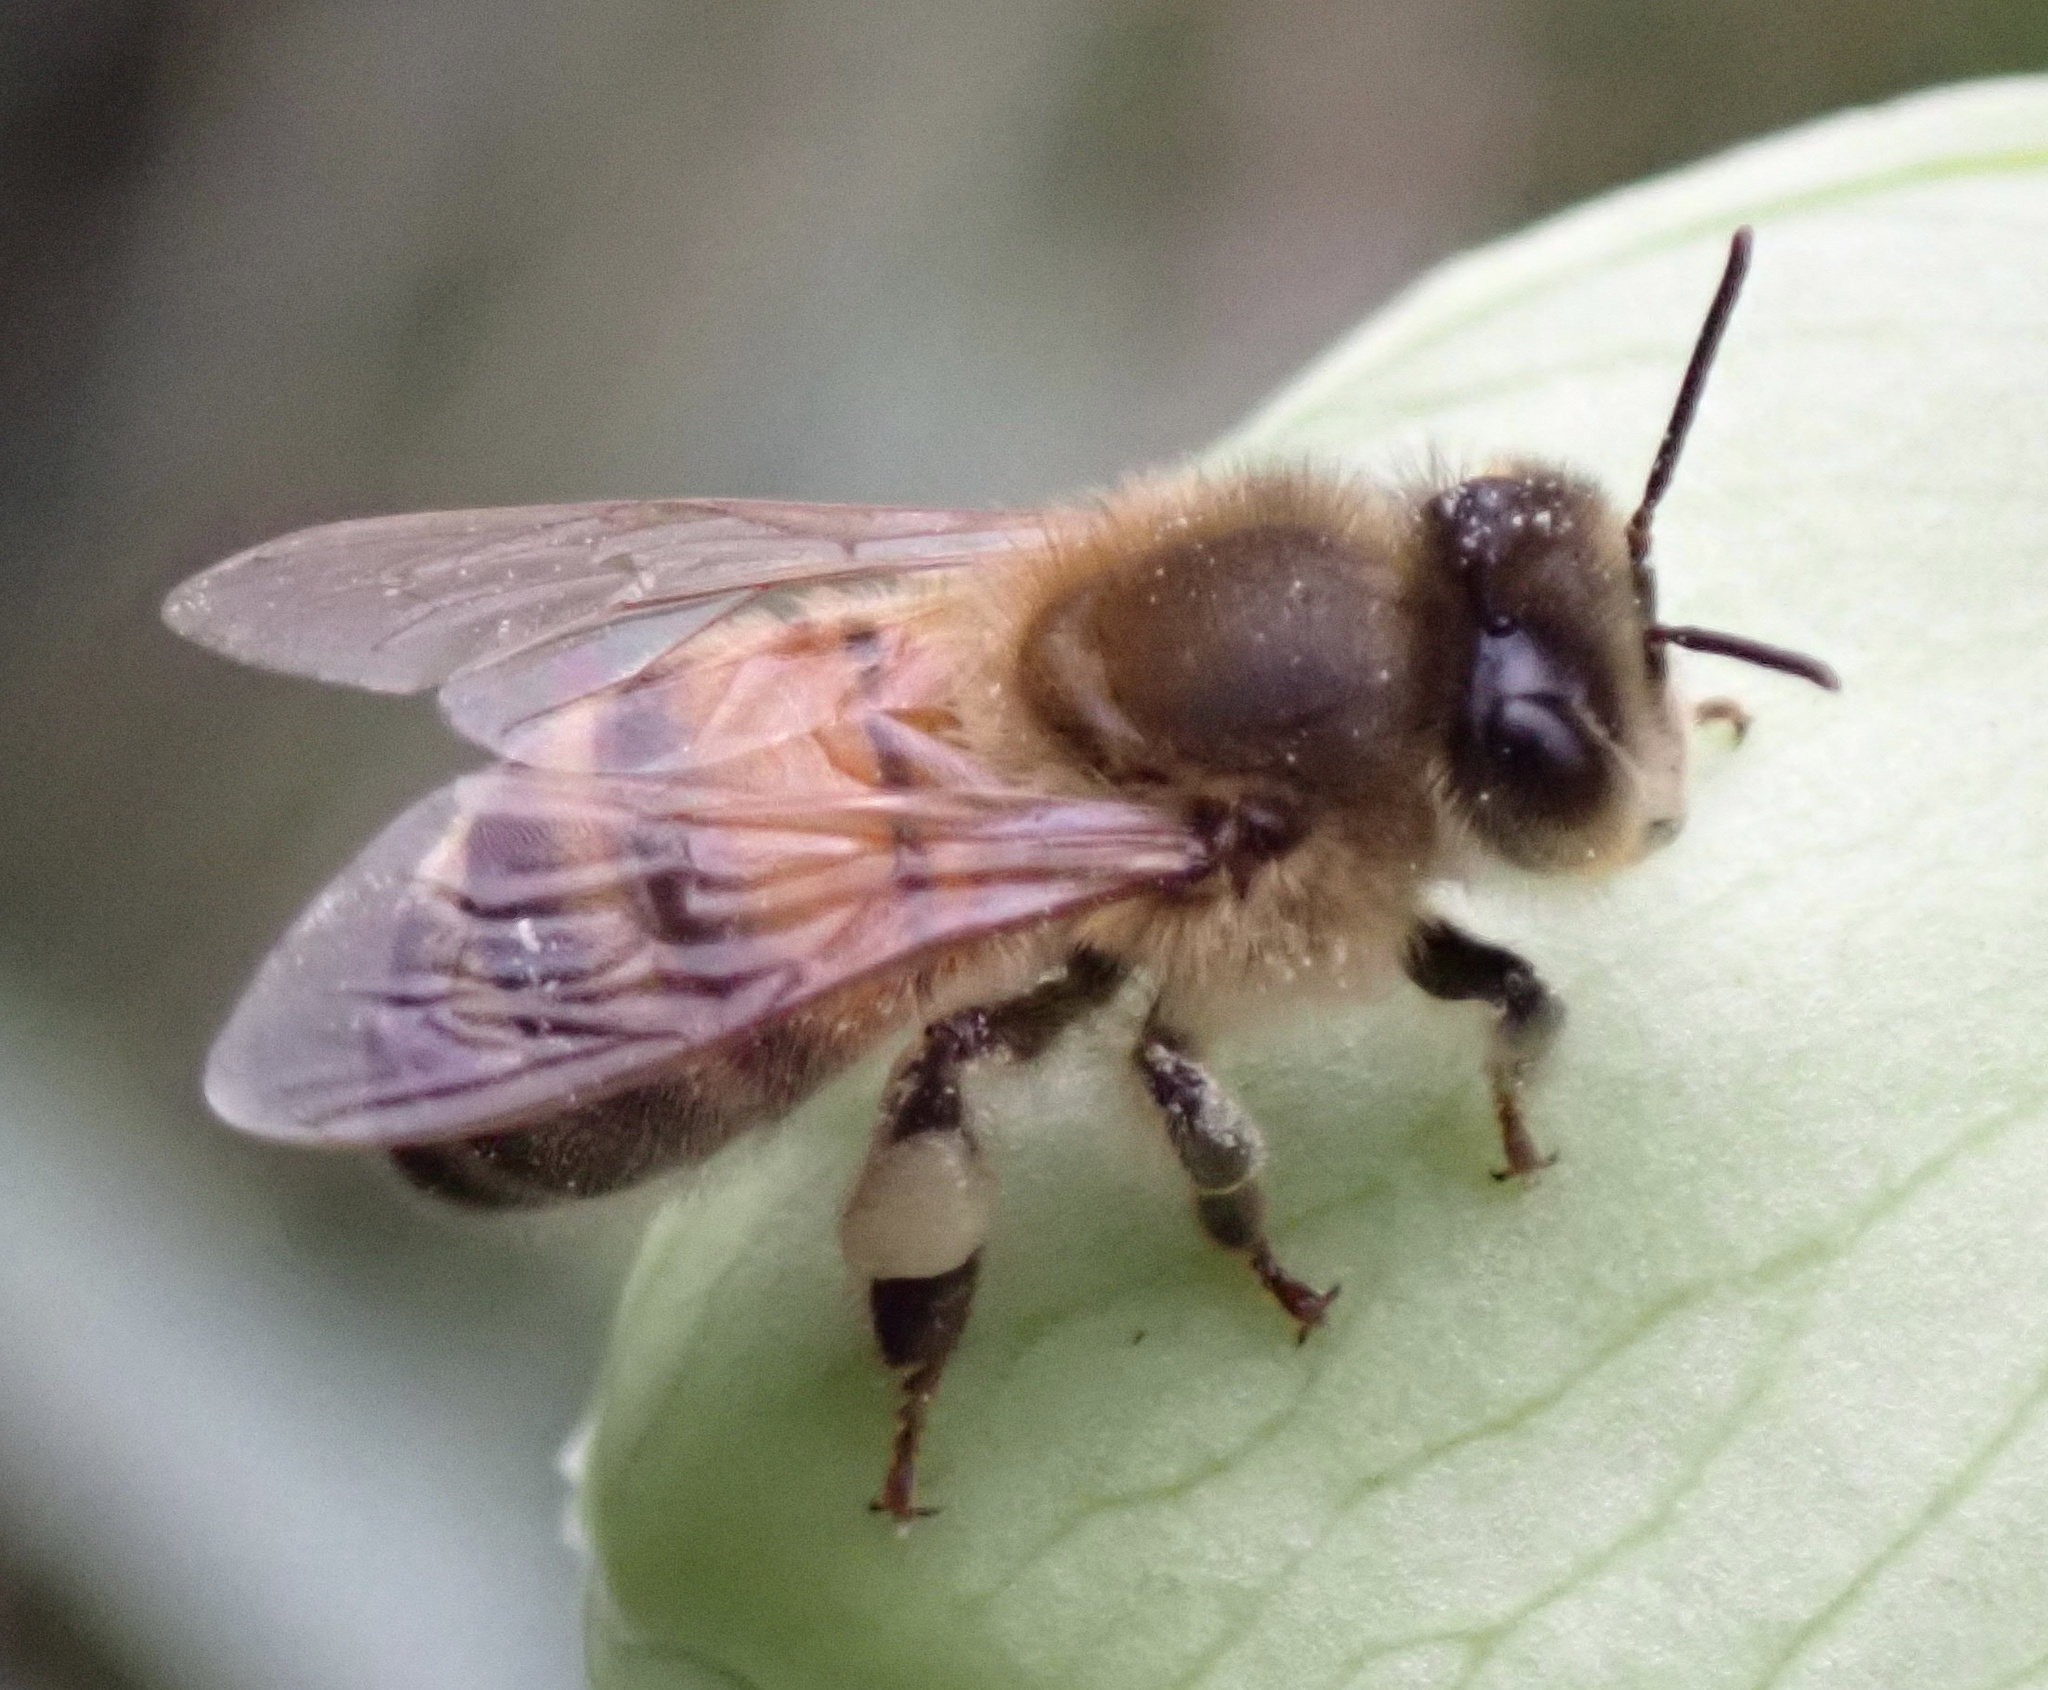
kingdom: Animalia
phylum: Arthropoda
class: Insecta
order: Hymenoptera
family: Apidae
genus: Apis
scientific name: Apis mellifera
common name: Honey bee
